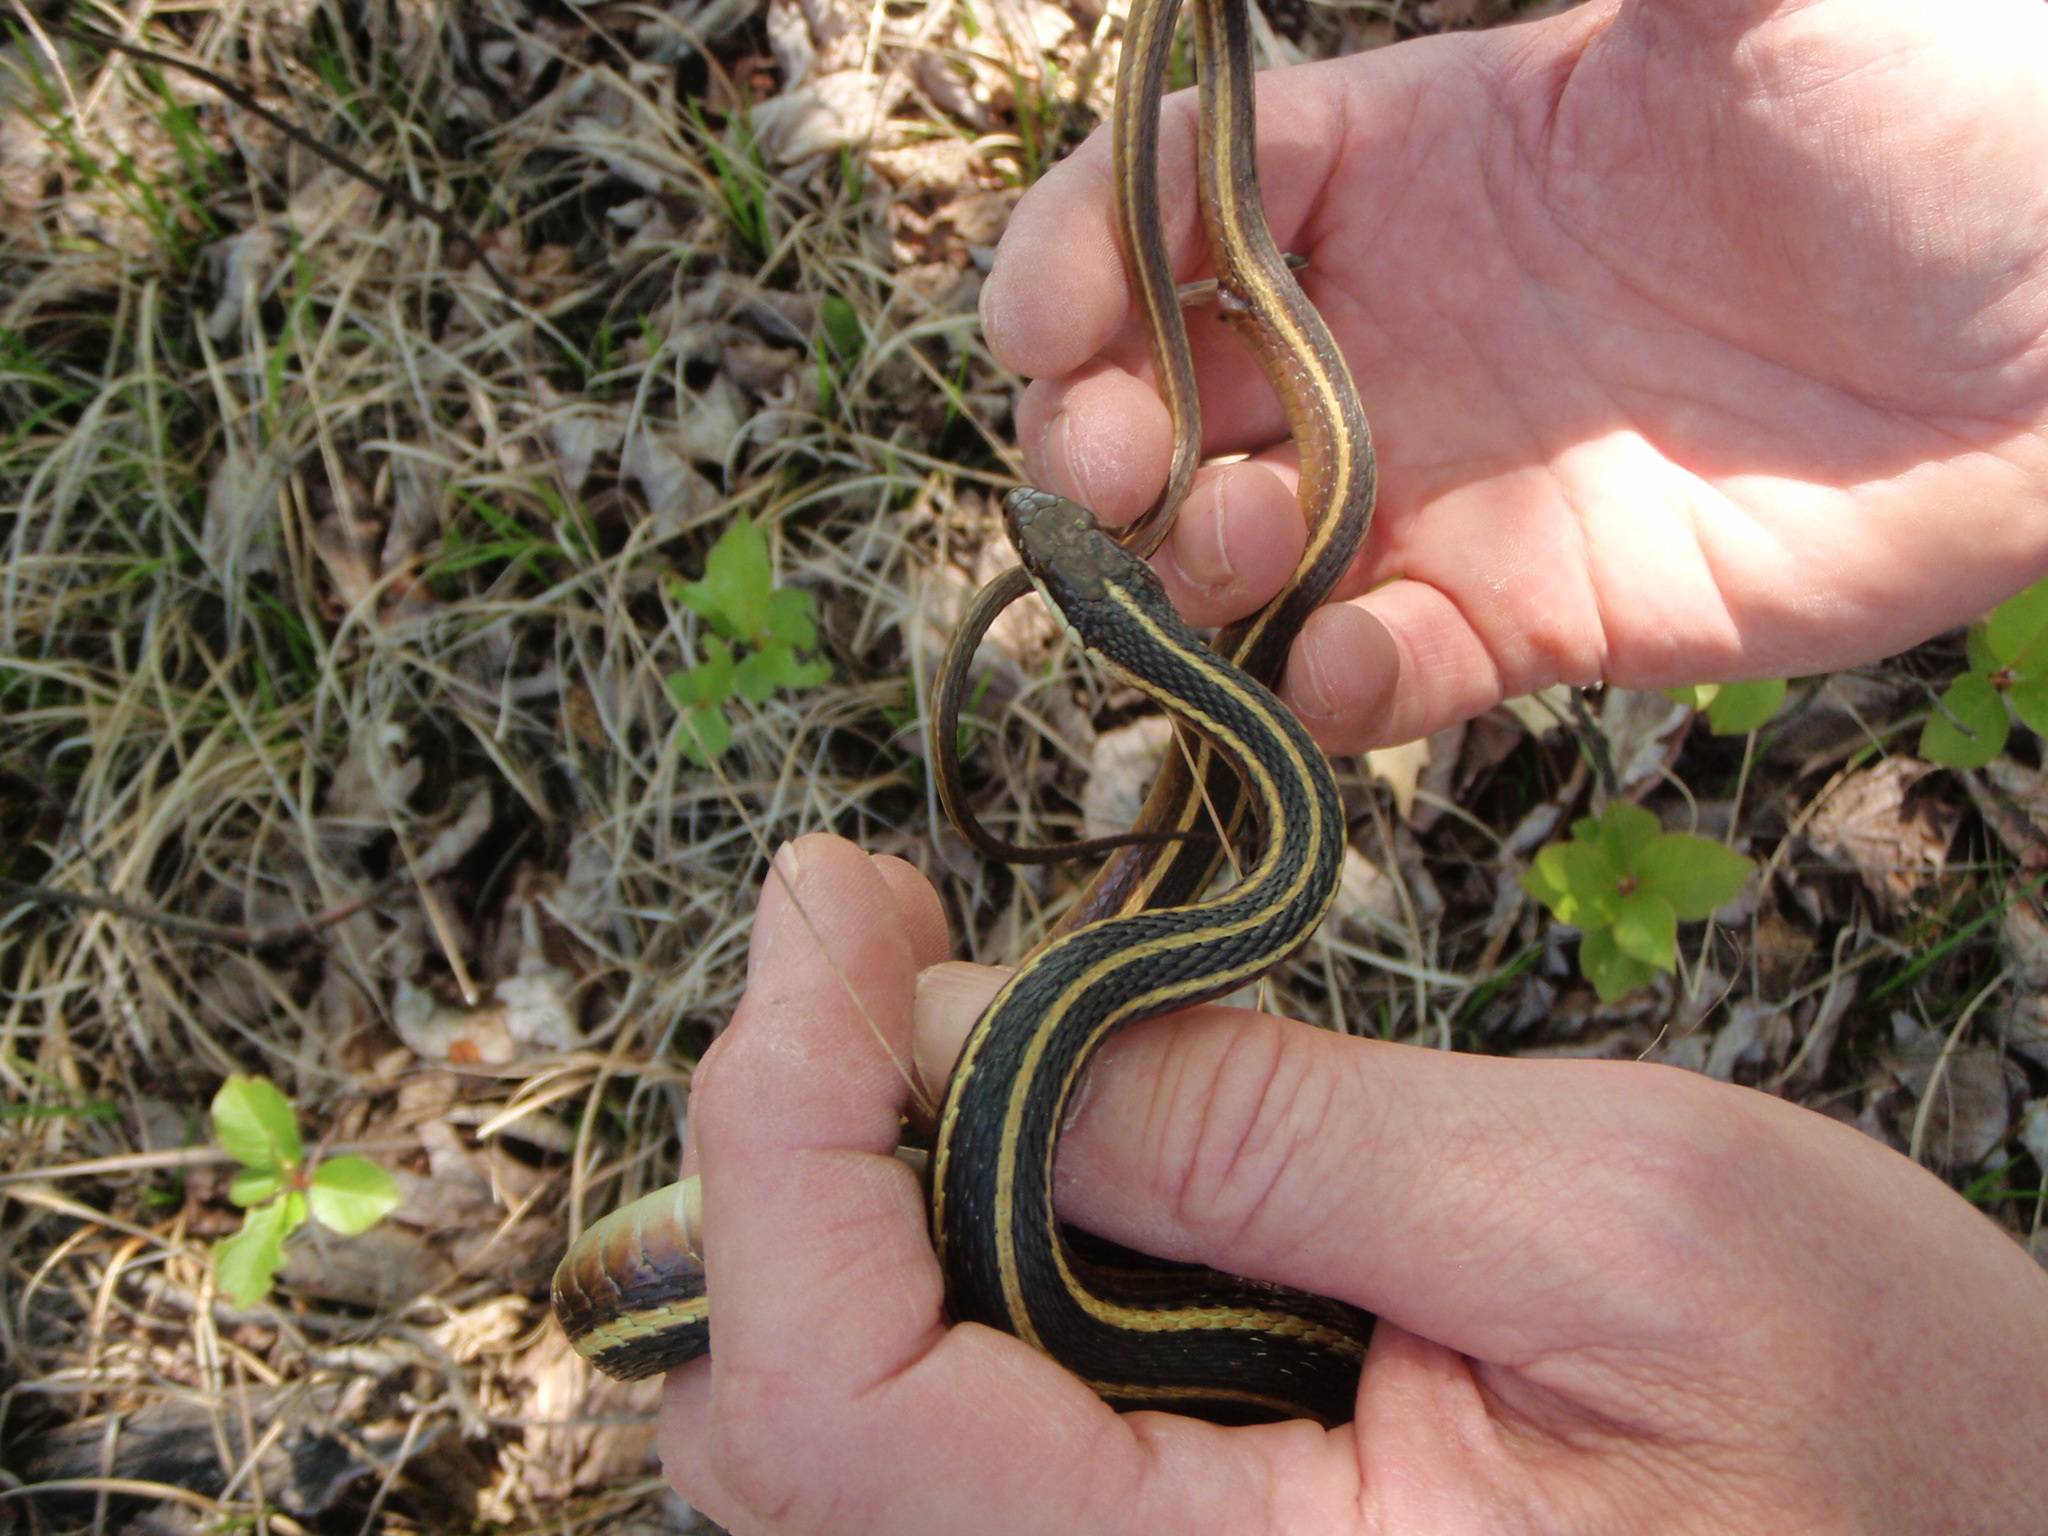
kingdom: Animalia
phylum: Chordata
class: Squamata
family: Colubridae
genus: Thamnophis
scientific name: Thamnophis saurita
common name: Eastern ribbonsnake
